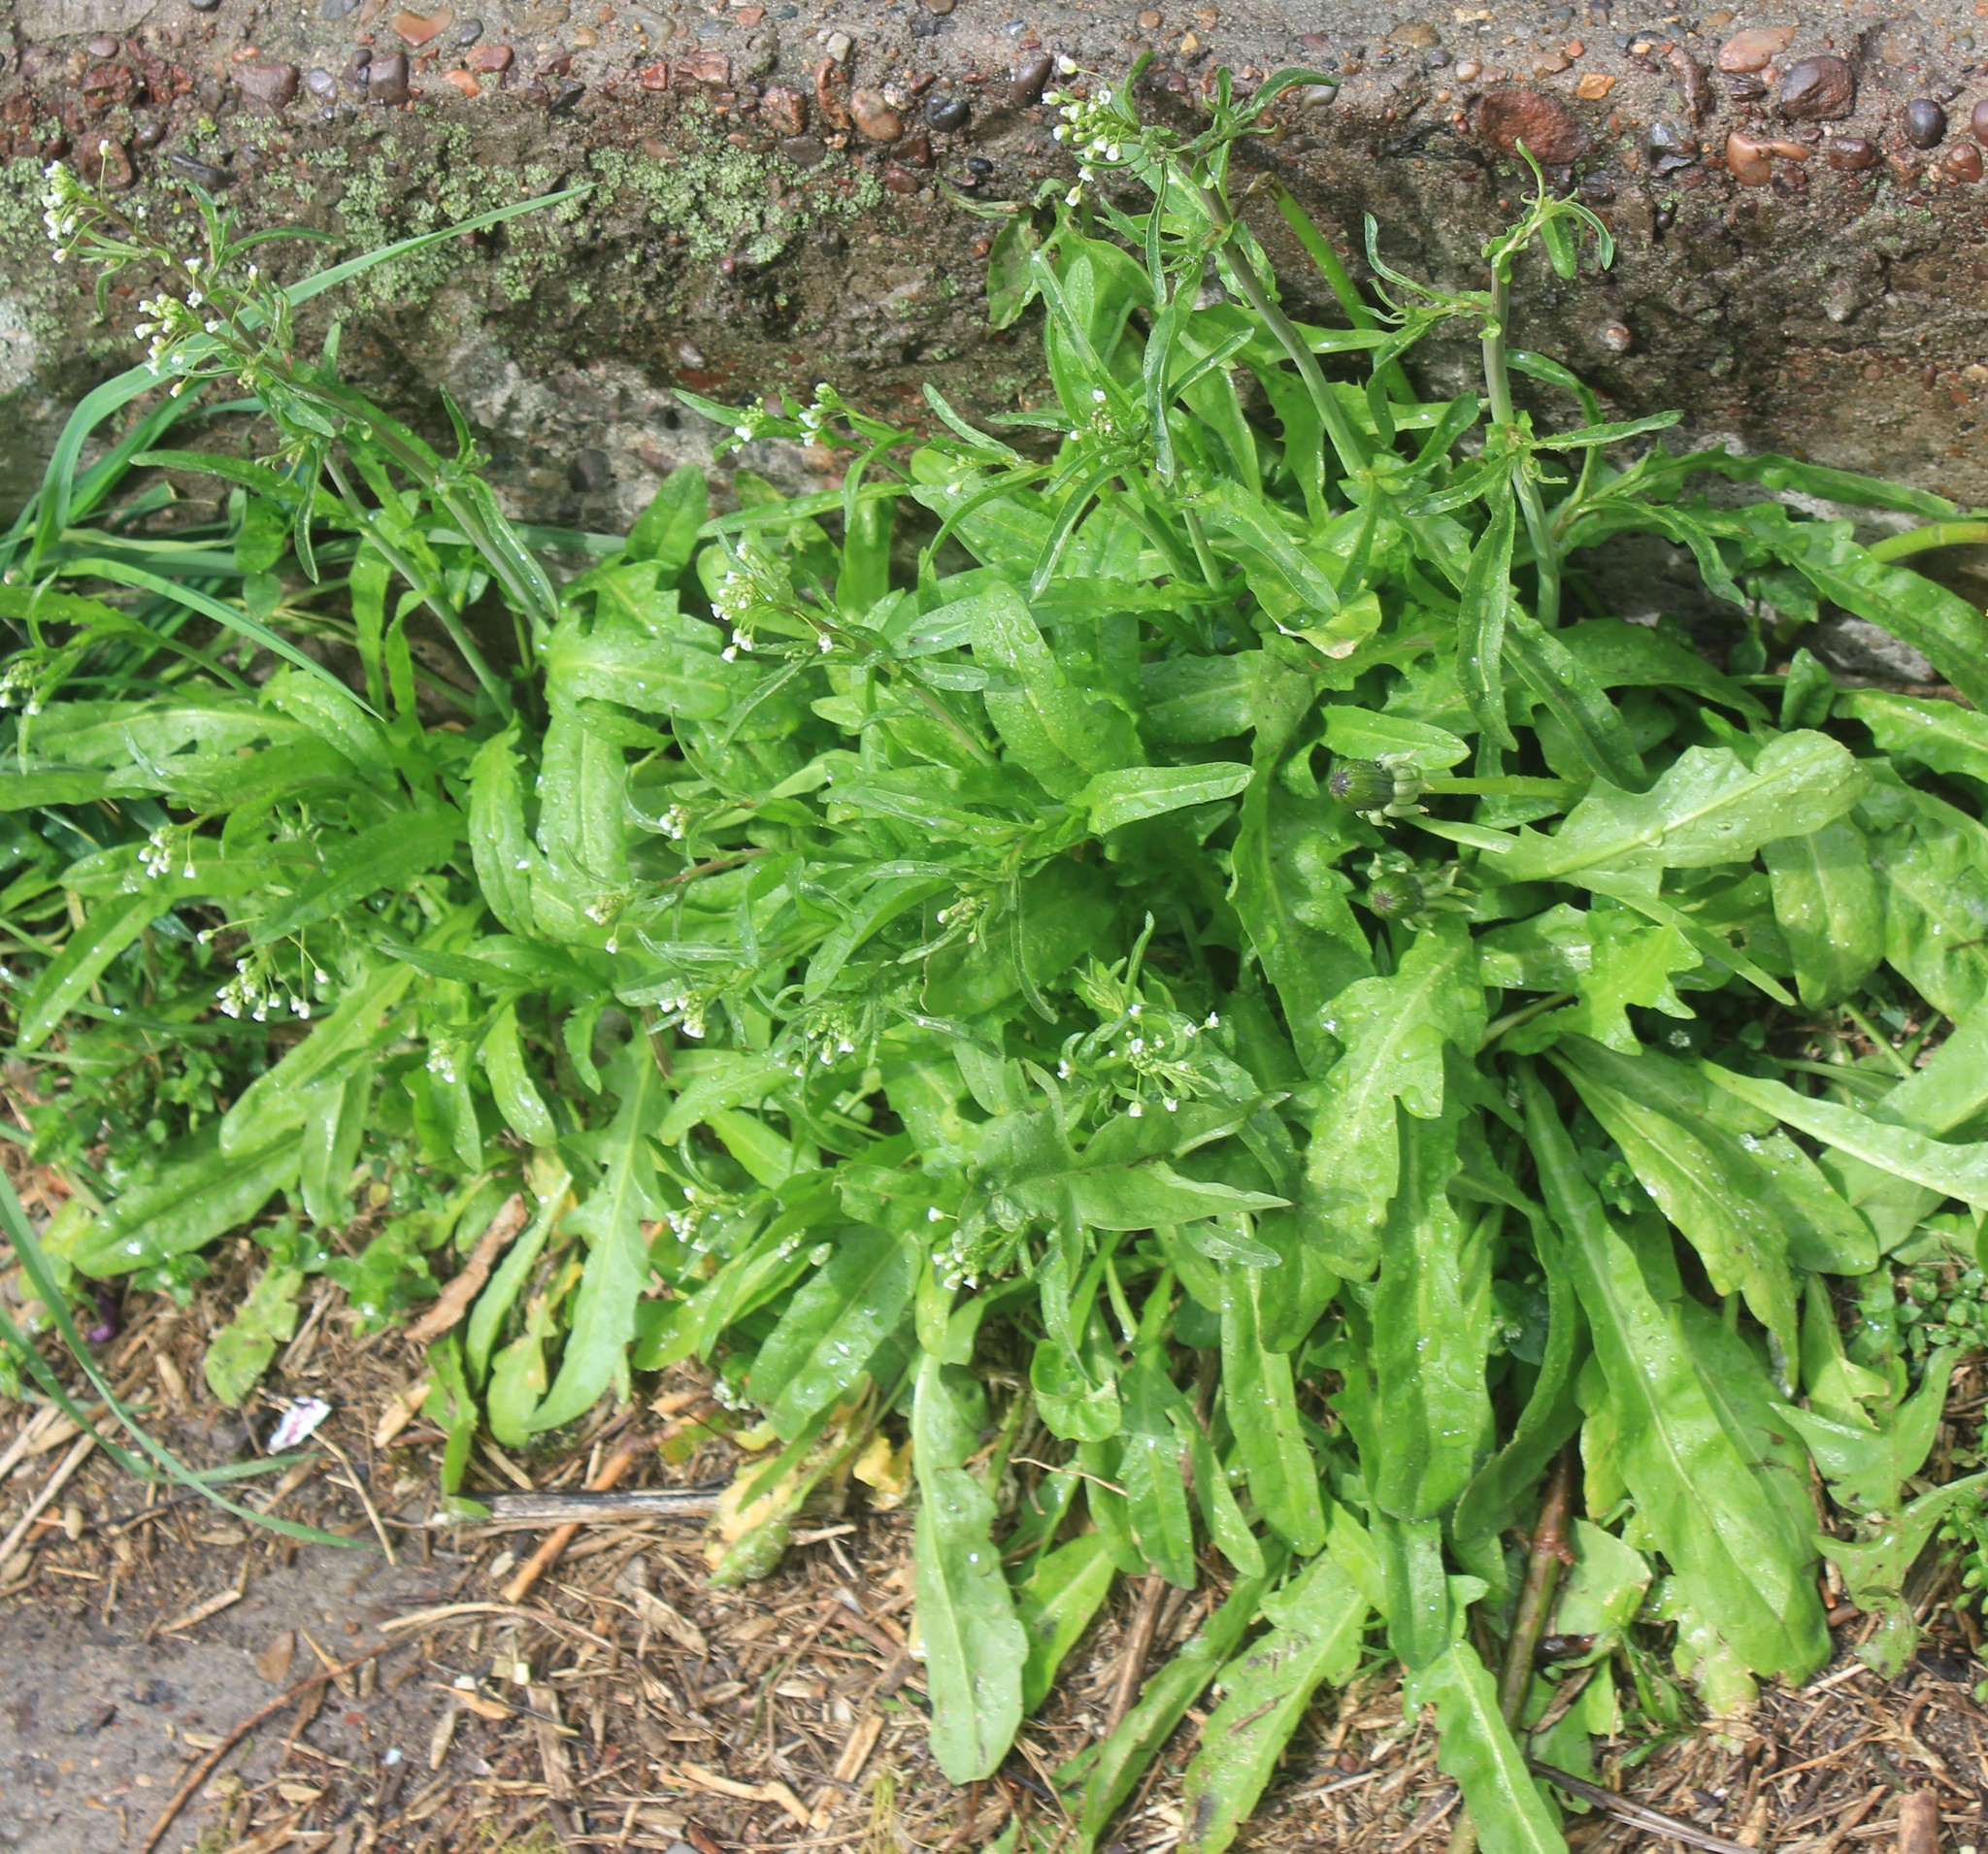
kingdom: Plantae
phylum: Tracheophyta
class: Magnoliopsida
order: Brassicales
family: Brassicaceae
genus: Capsella
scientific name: Capsella bursa-pastoris
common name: Shepherd's purse
